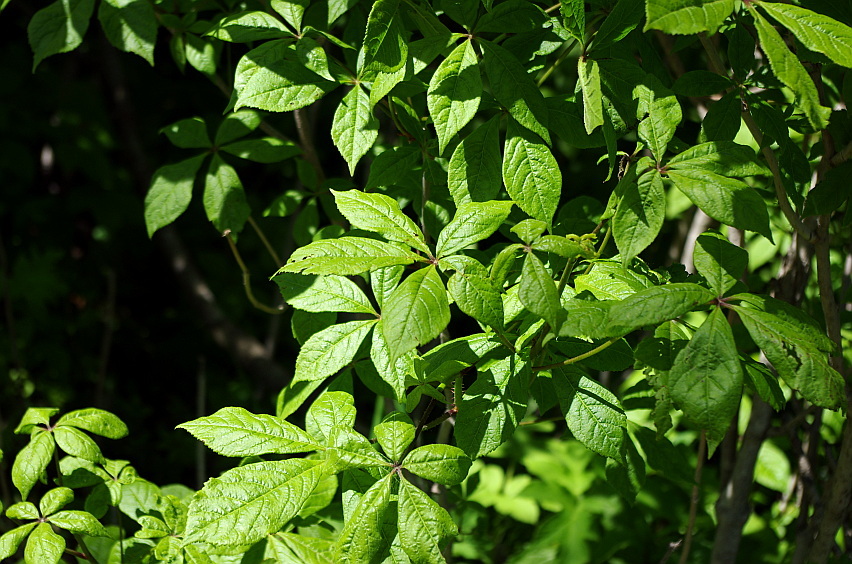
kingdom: Plantae
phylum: Tracheophyta
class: Magnoliopsida
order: Apiales
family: Araliaceae
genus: Eleutherococcus
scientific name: Eleutherococcus senticosus
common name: Siberian-ginseng
